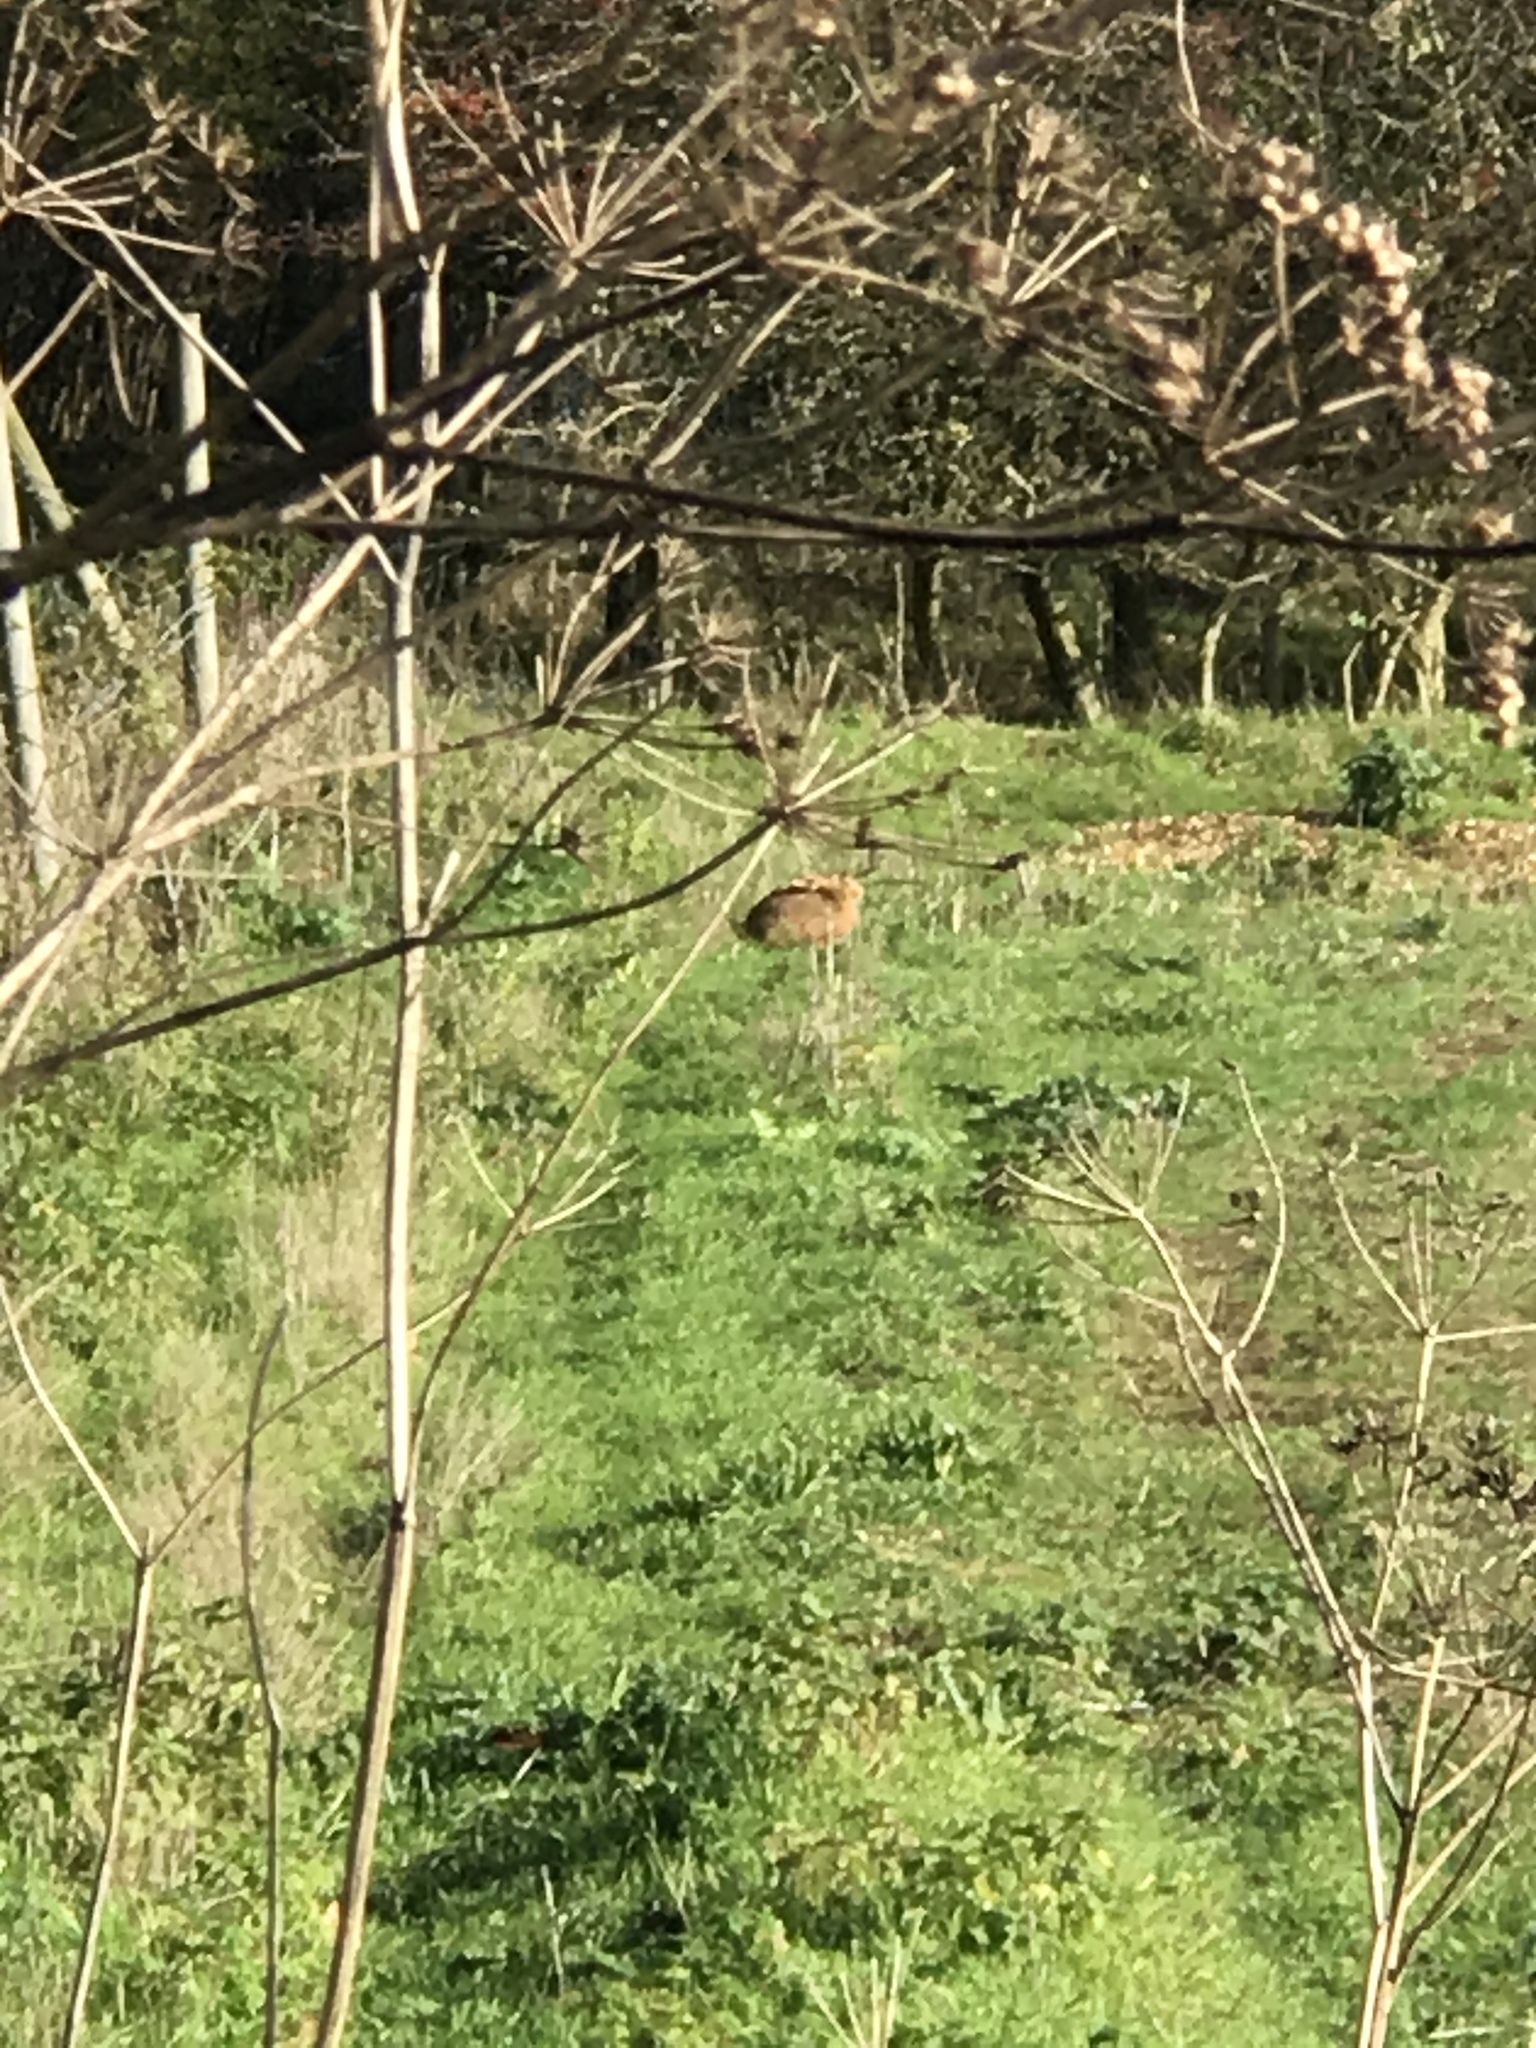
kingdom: Animalia
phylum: Chordata
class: Mammalia
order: Lagomorpha
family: Leporidae
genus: Lepus
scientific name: Lepus europaeus
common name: European hare
